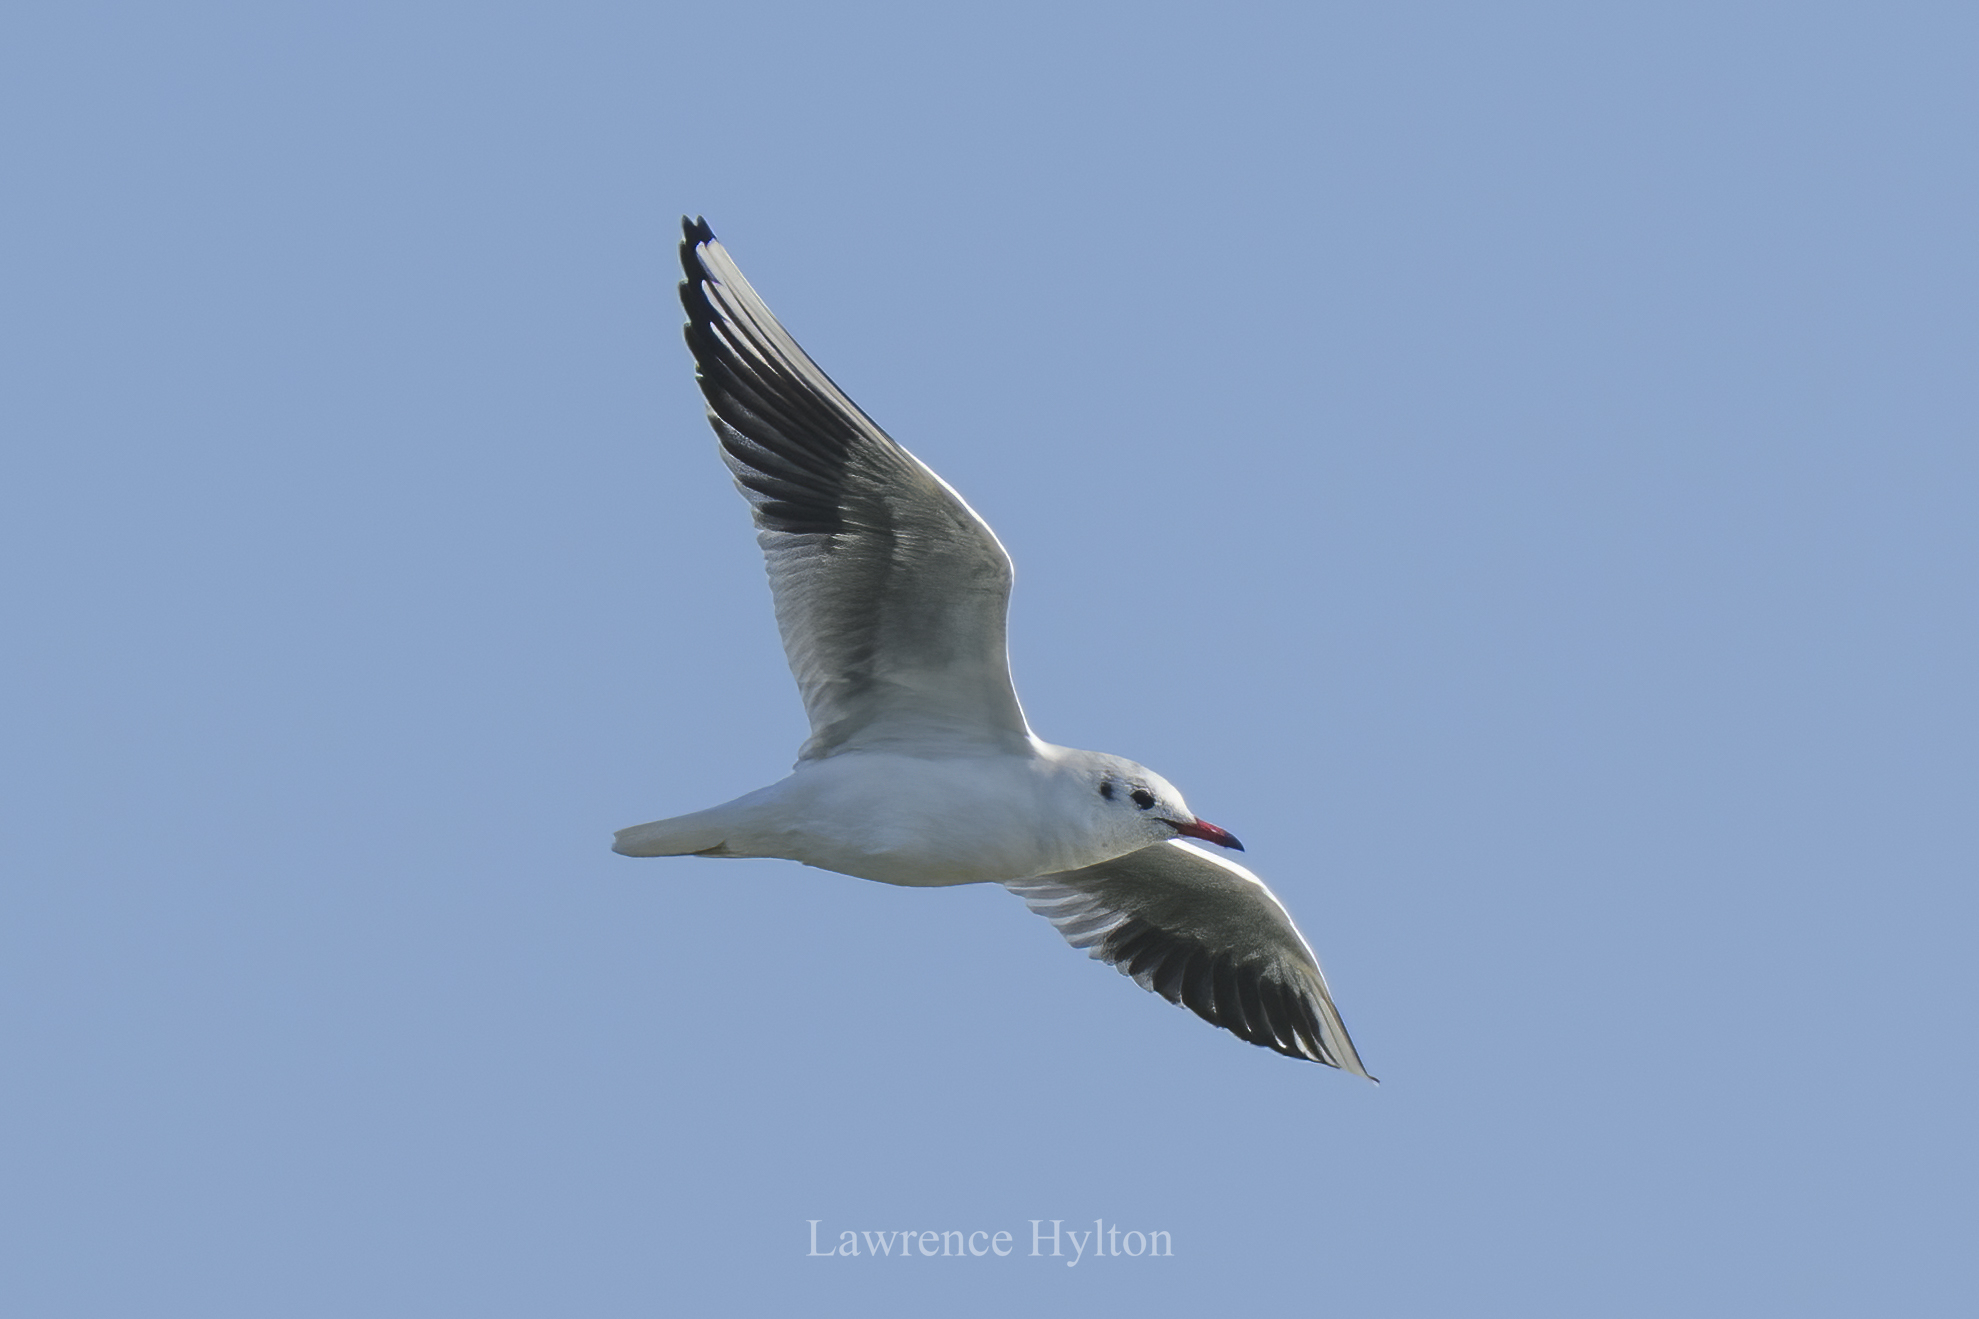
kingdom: Animalia
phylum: Chordata
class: Aves
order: Charadriiformes
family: Laridae
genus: Chroicocephalus
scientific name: Chroicocephalus ridibundus
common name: Black-headed gull
